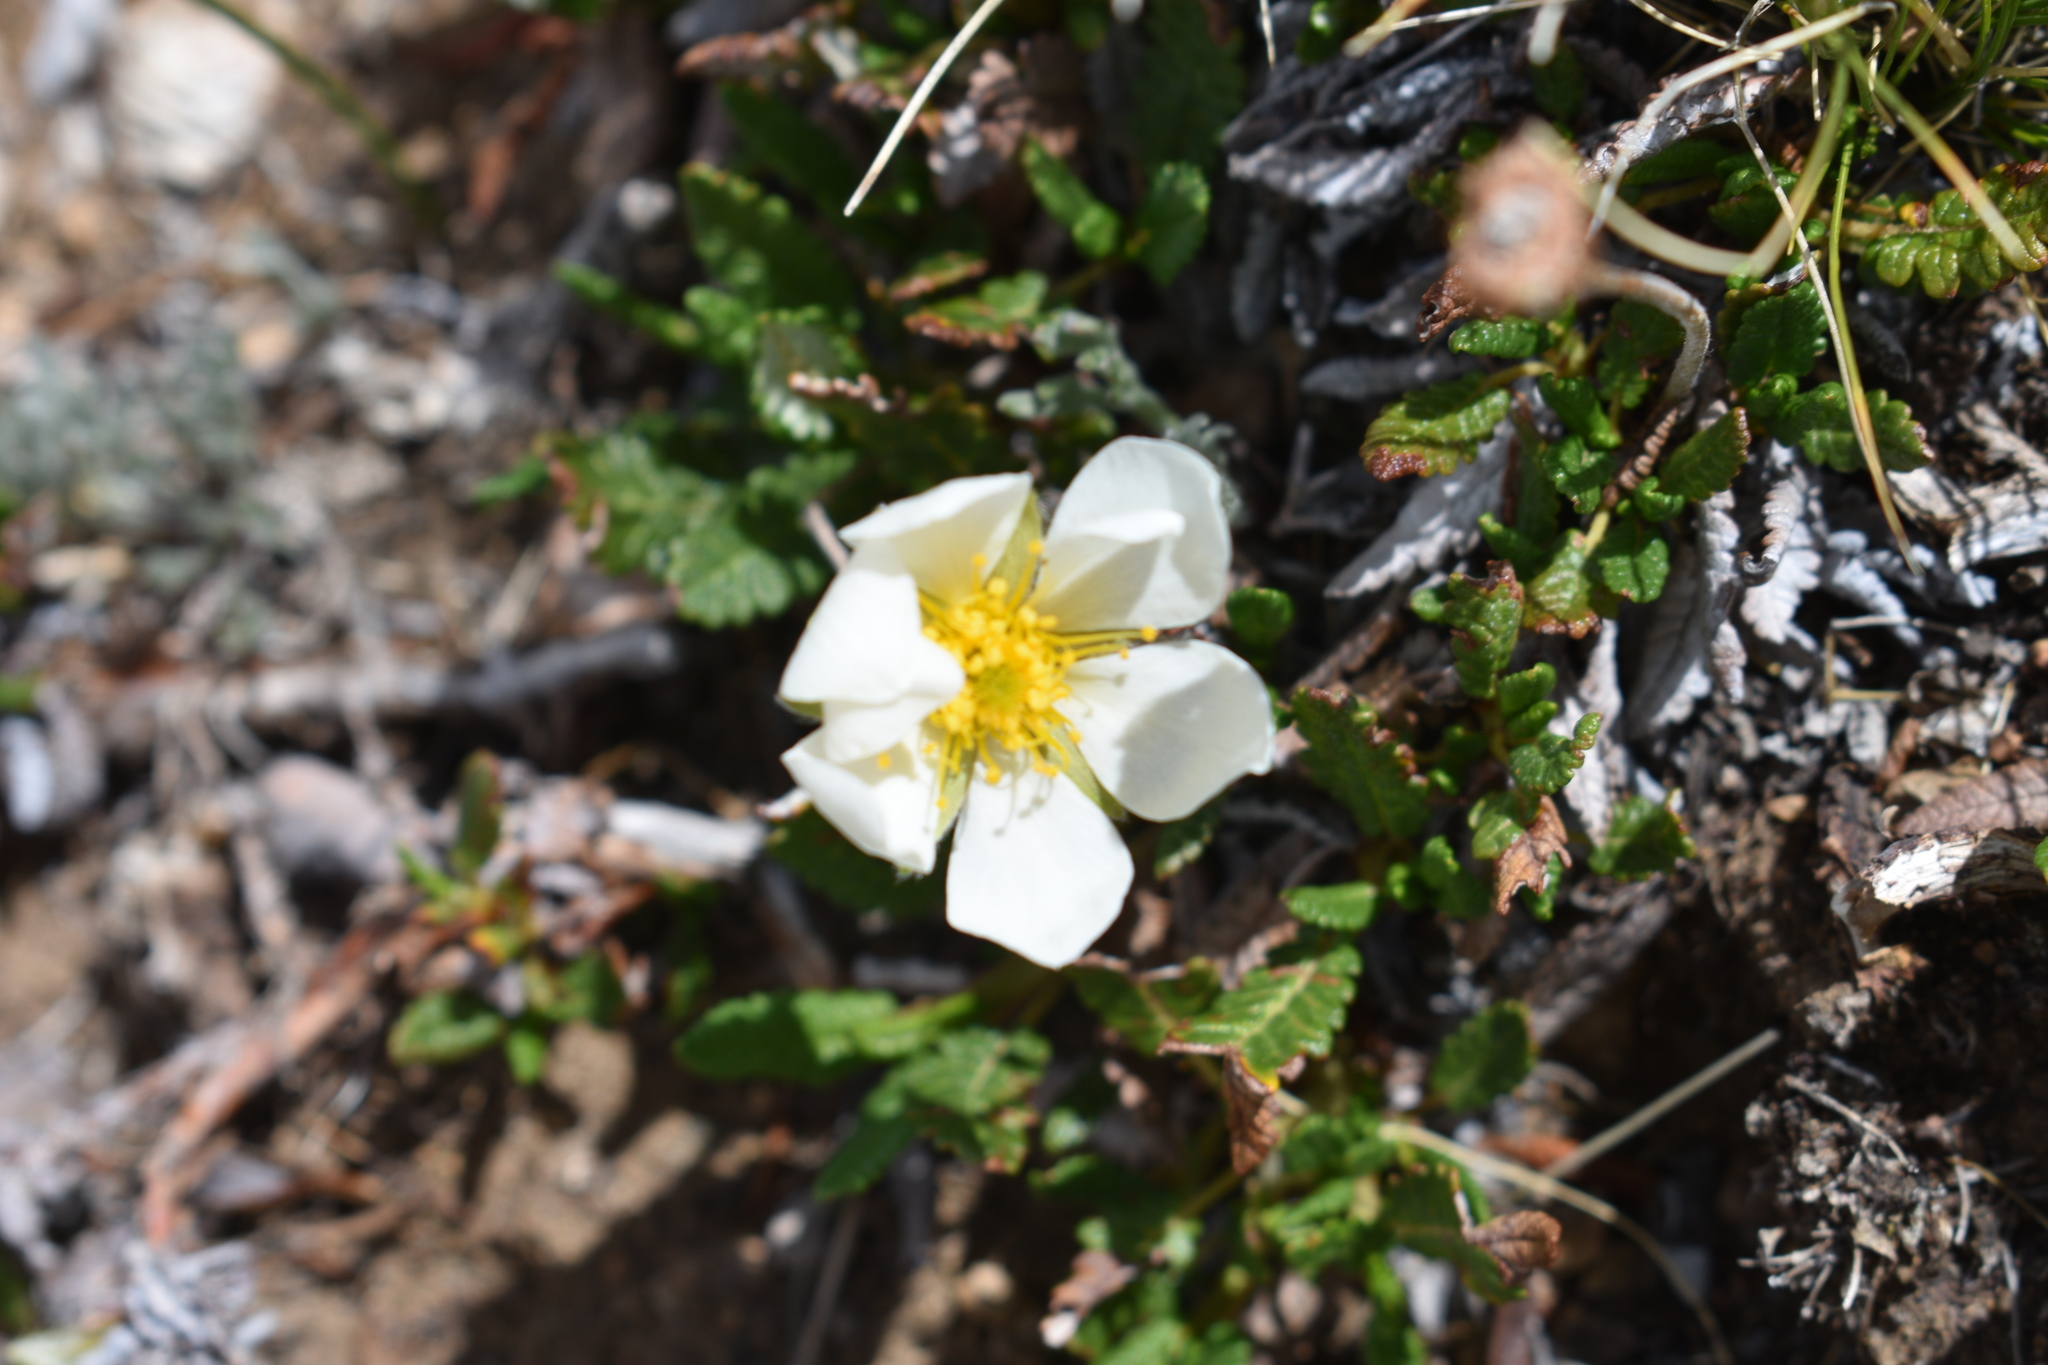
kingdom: Plantae
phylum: Tracheophyta
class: Magnoliopsida
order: Rosales
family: Rosaceae
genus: Dryas
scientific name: Dryas octopetala
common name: Eight-petal mountain-avens
